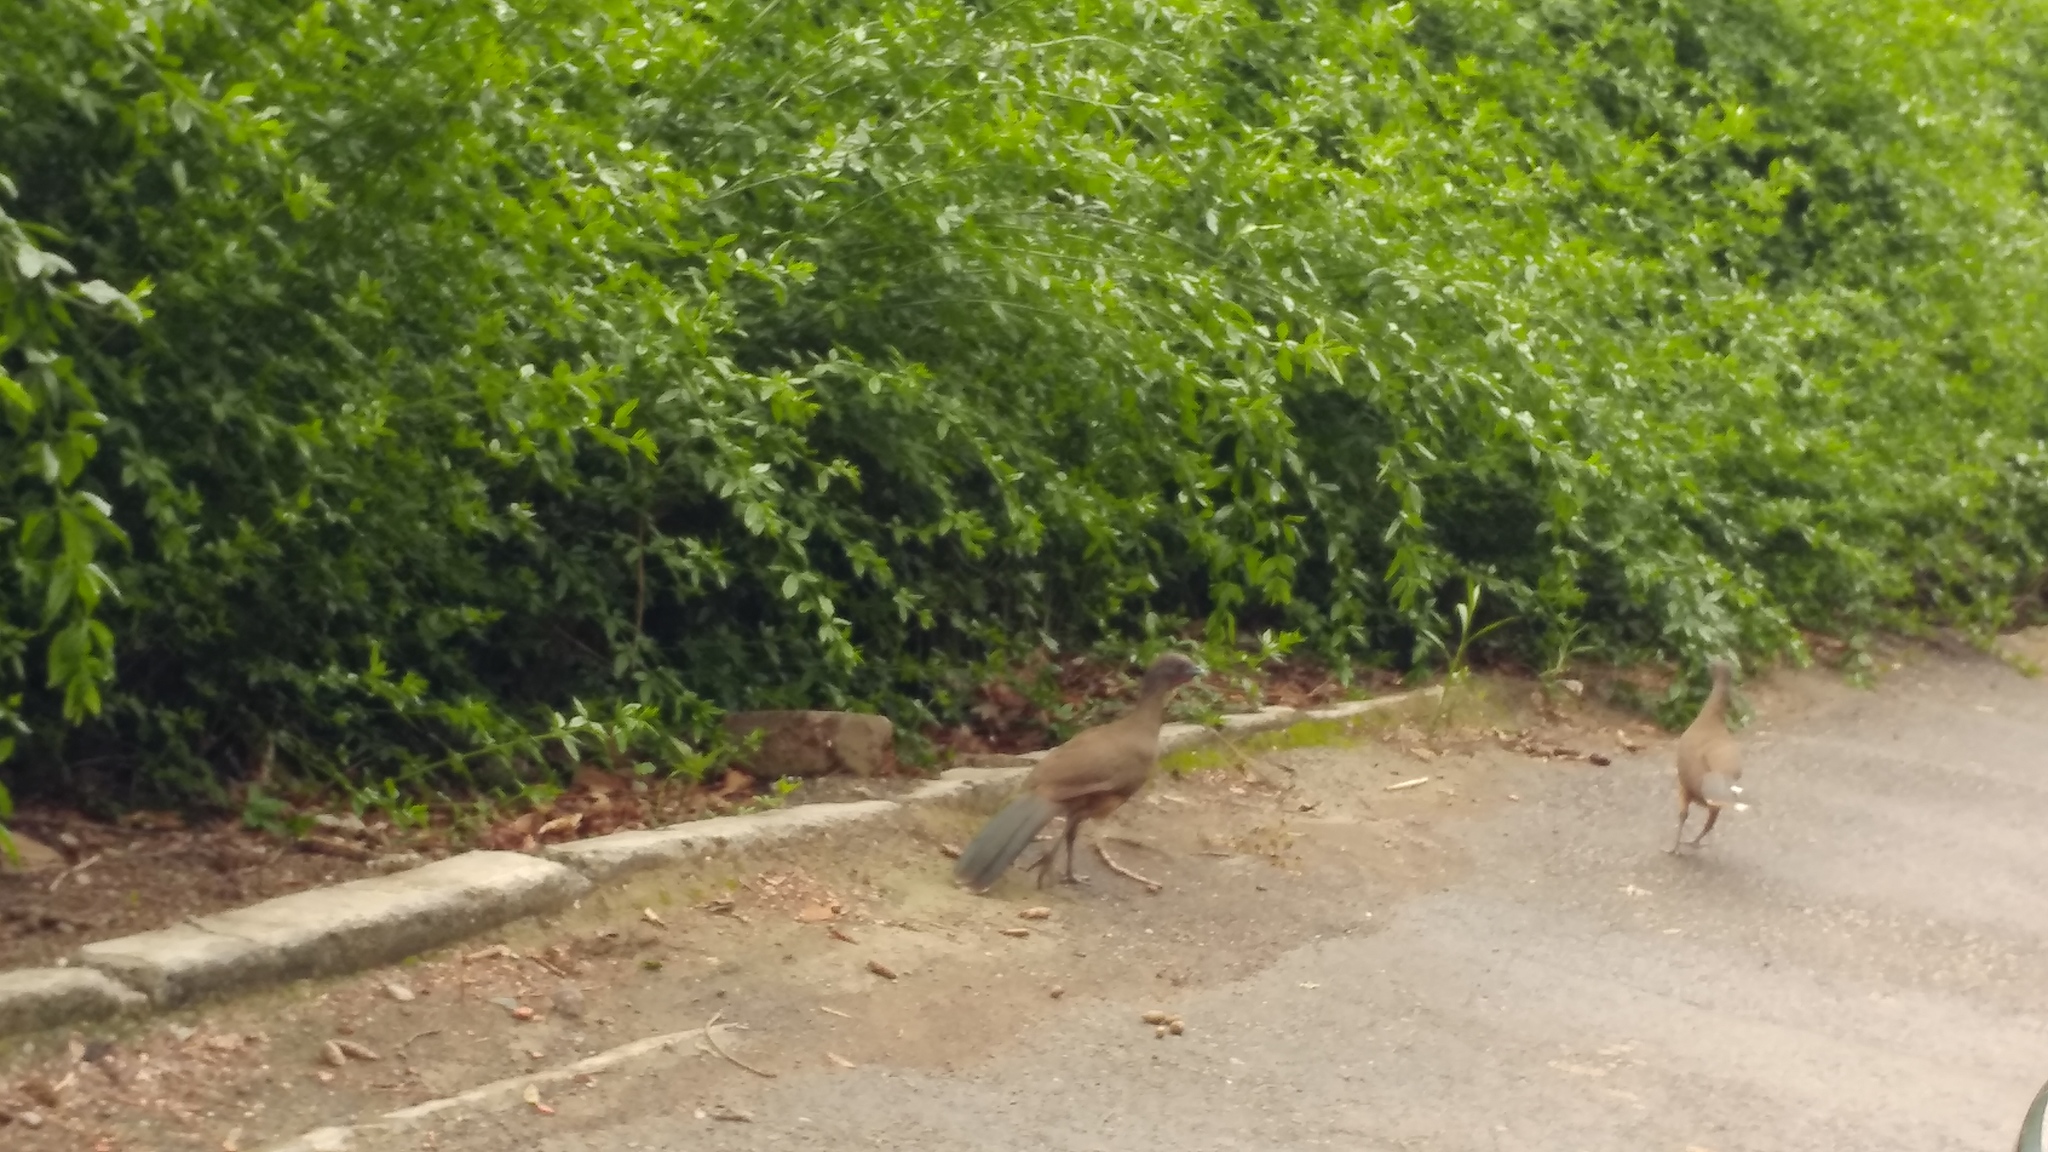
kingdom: Animalia
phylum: Chordata
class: Aves
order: Galliformes
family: Cracidae
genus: Ortalis
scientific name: Ortalis vetula
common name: Plain chachalaca
